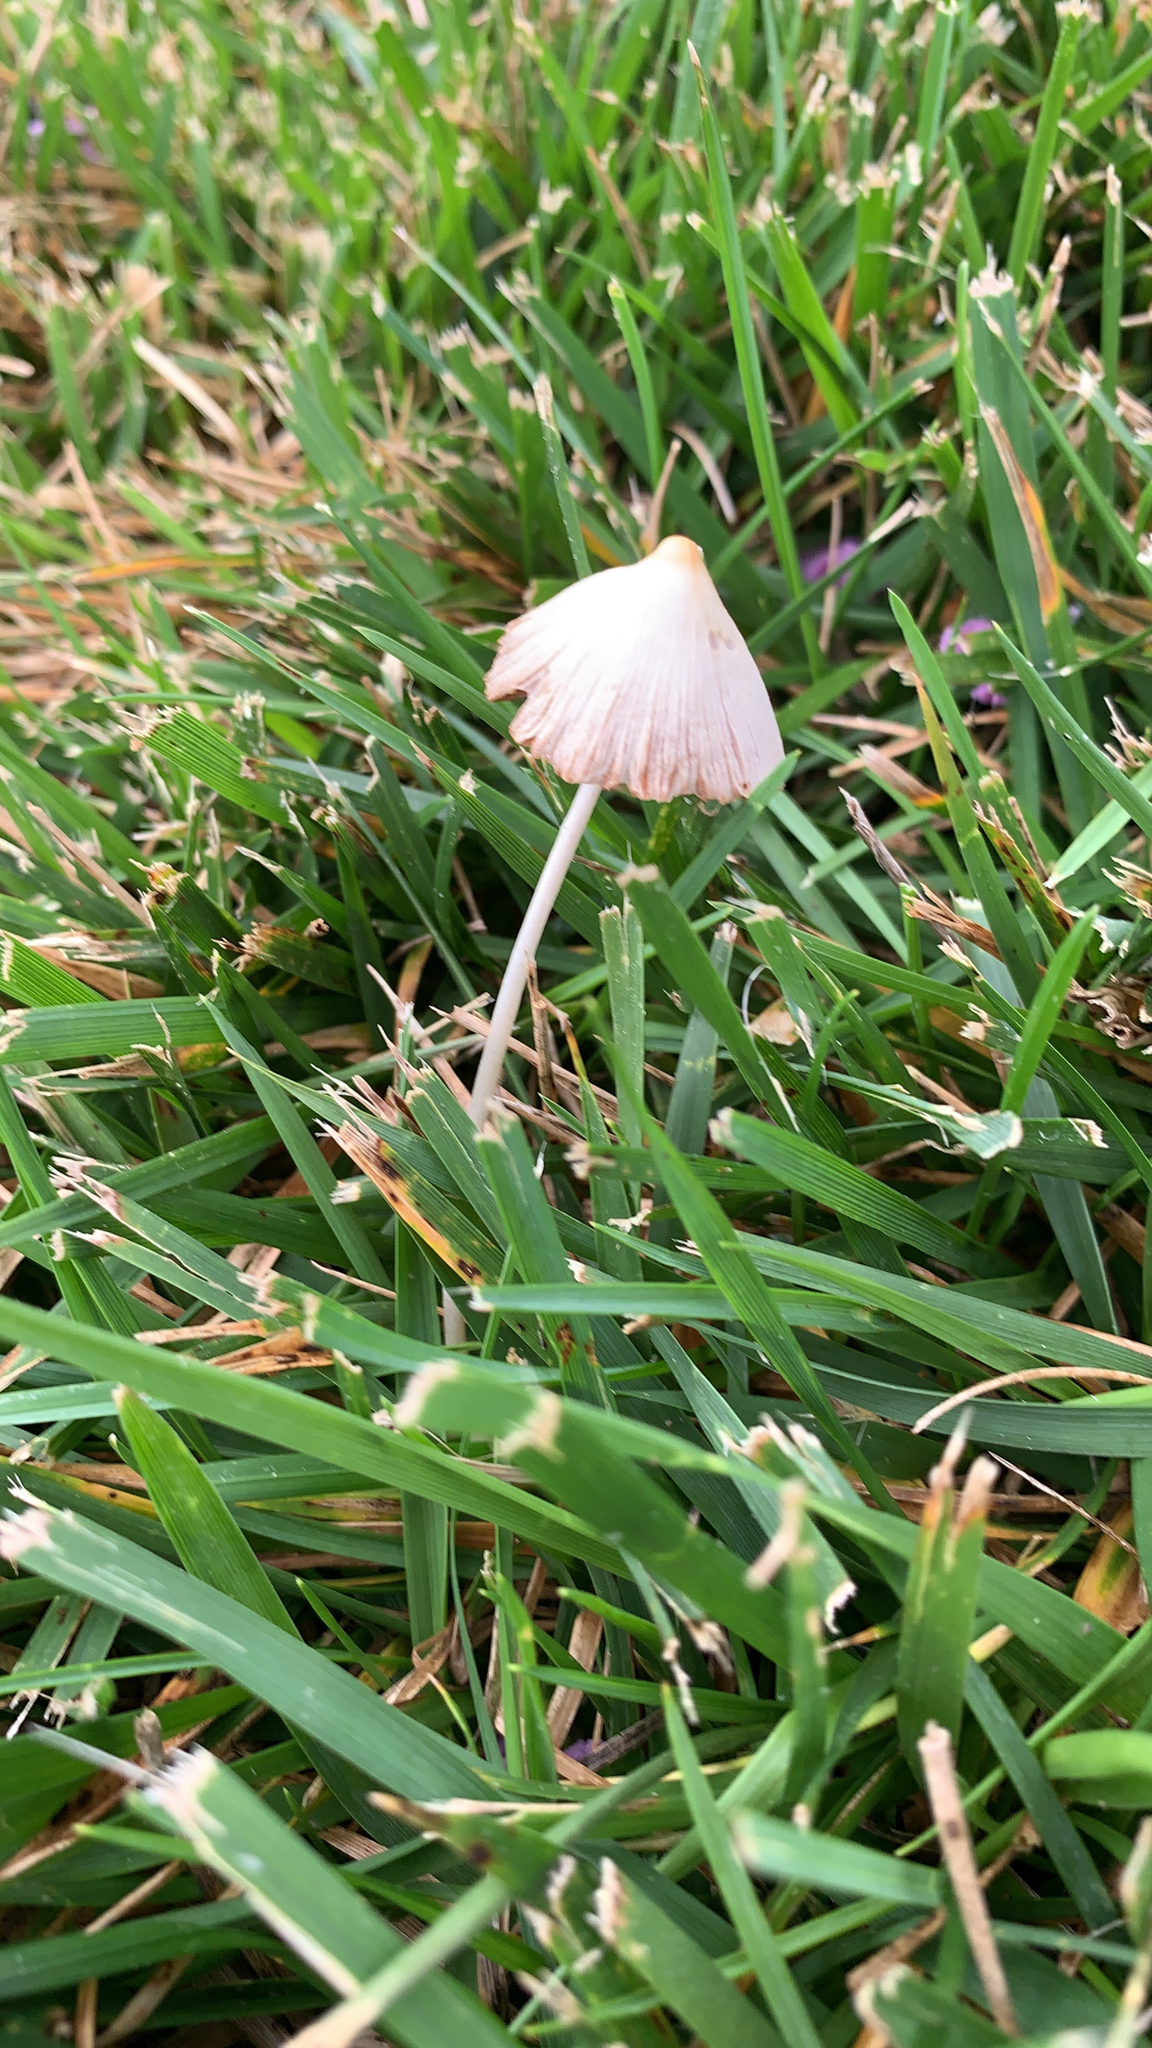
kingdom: Fungi
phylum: Basidiomycota
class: Agaricomycetes
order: Agaricales
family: Bolbitiaceae
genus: Conocybe
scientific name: Conocybe apala
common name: Milky conecap
